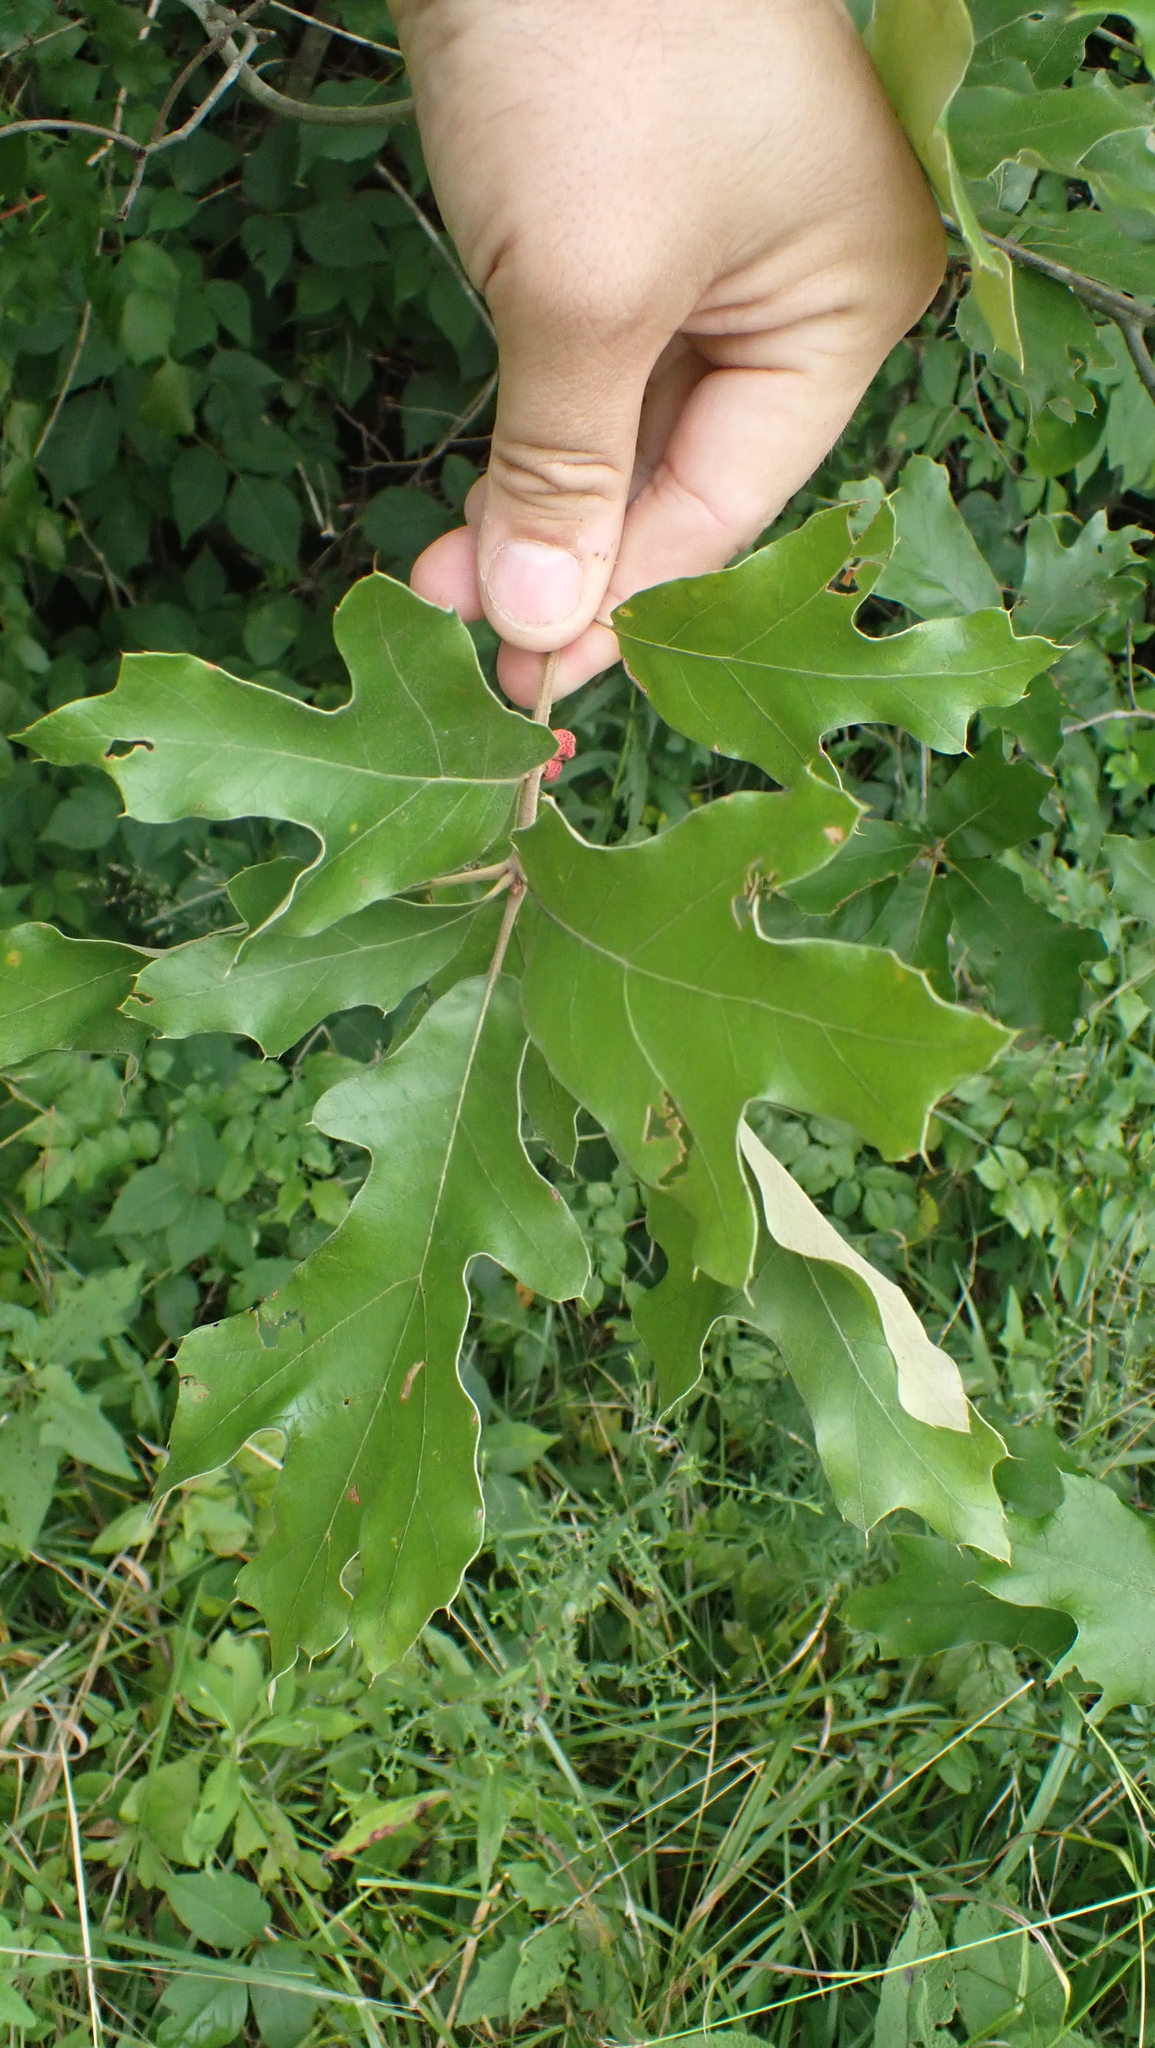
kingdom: Animalia
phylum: Arthropoda
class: Insecta
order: Hymenoptera
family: Cynipidae
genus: Kokkocynips
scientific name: Kokkocynips imbricariae
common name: Banded bullet gall wasp
